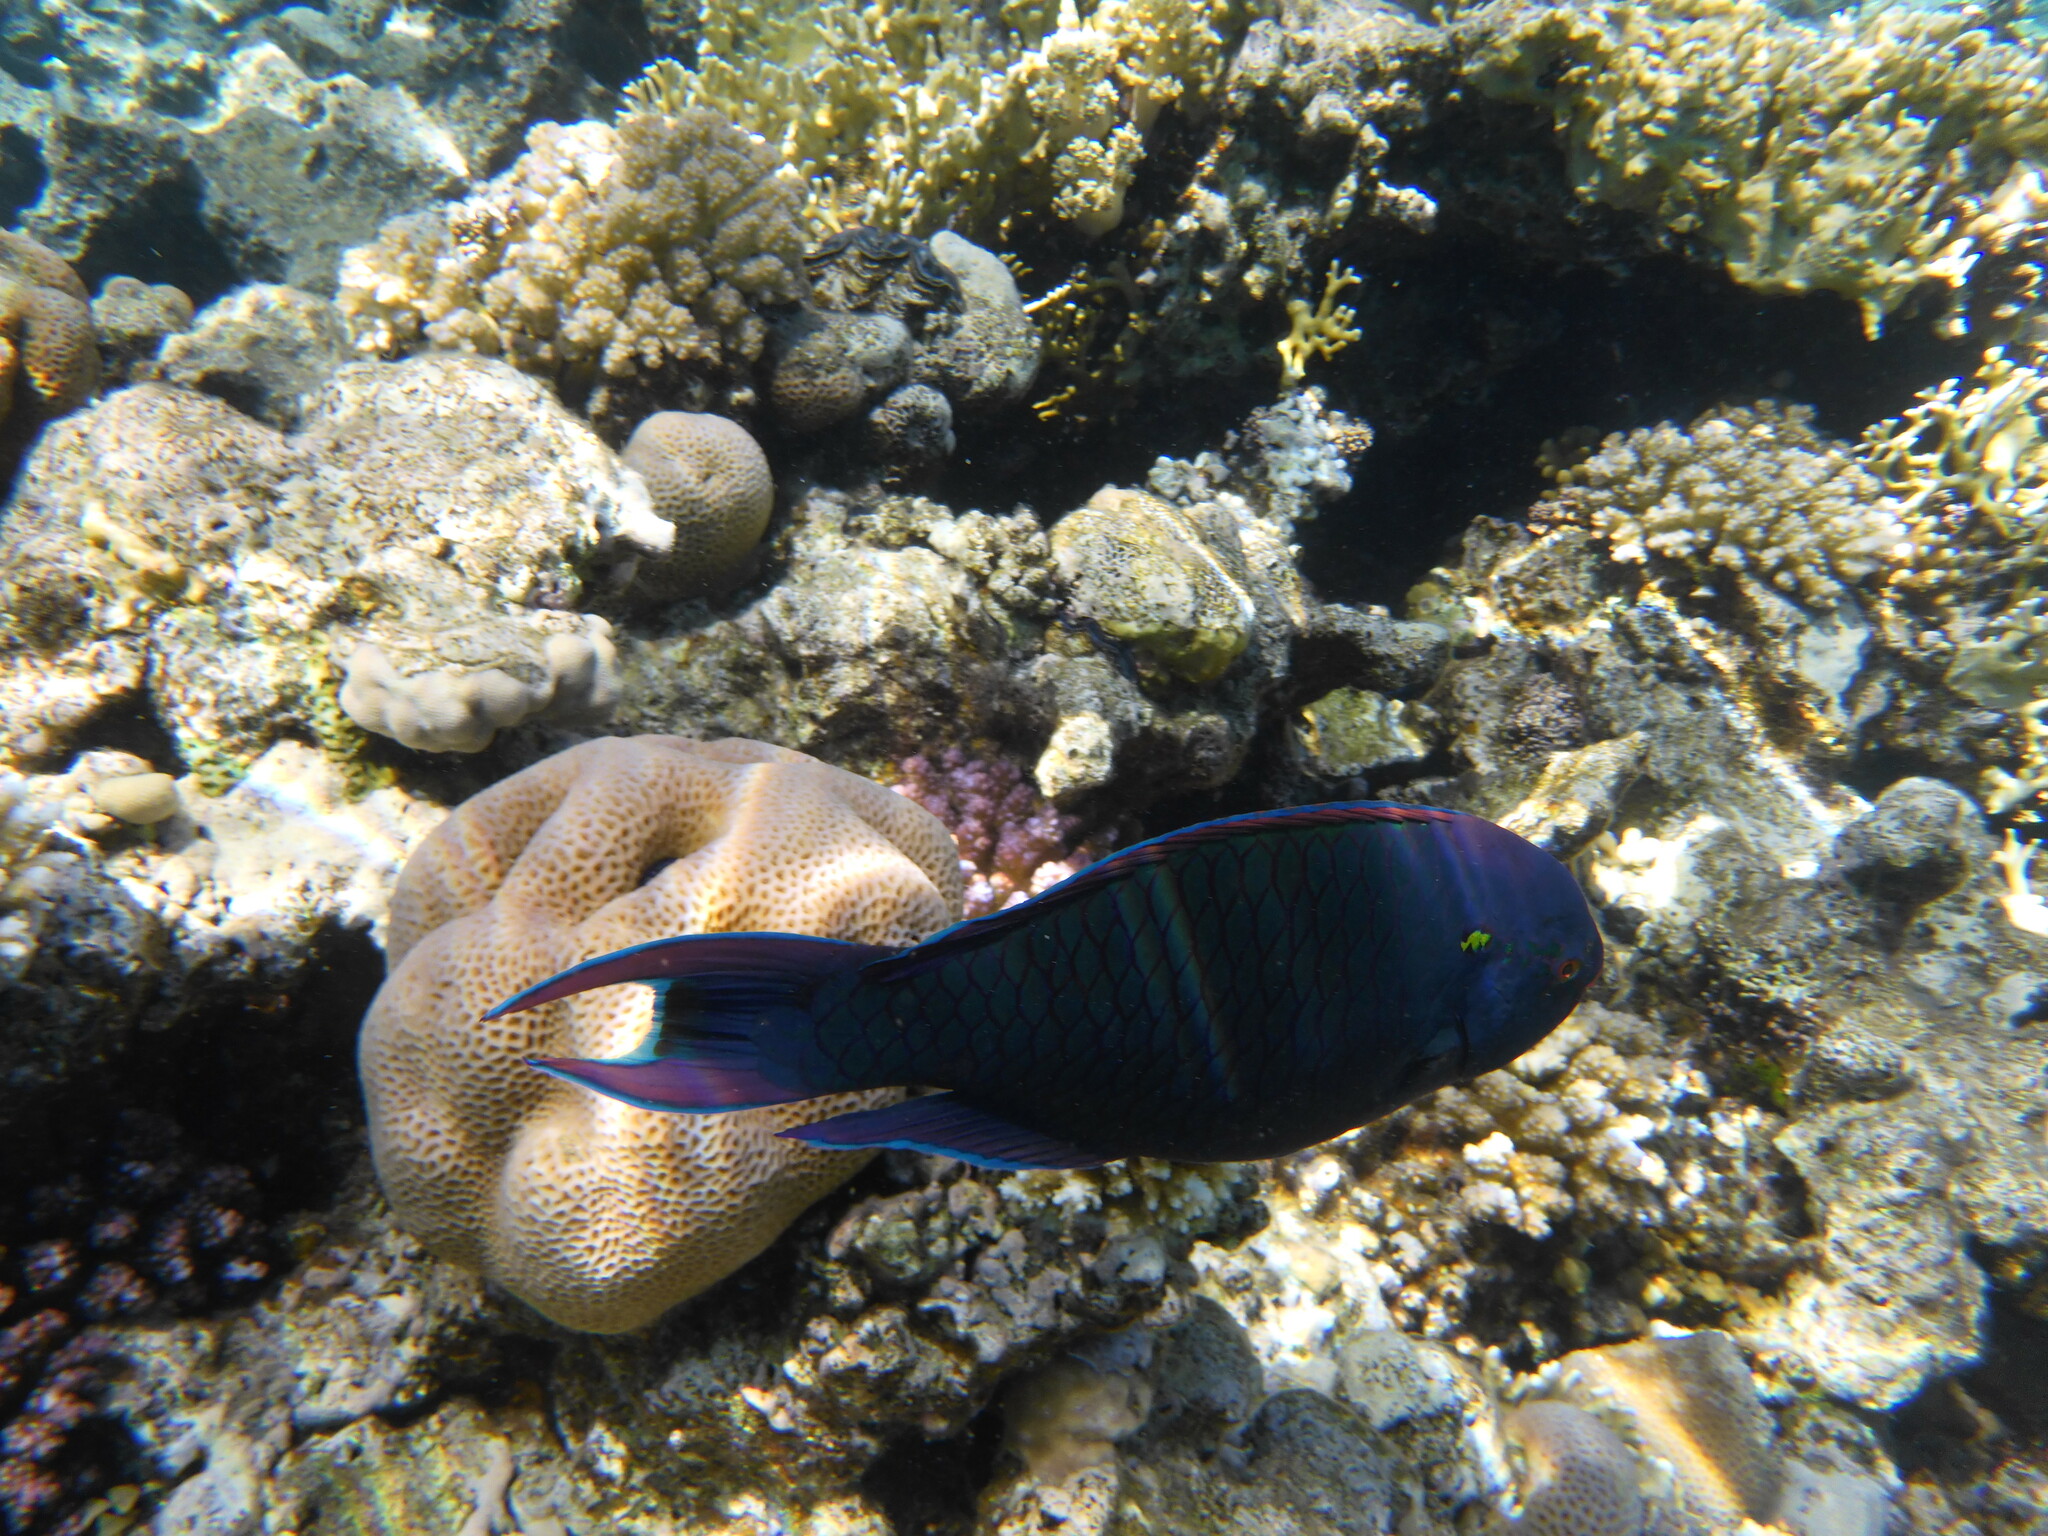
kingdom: Animalia
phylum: Chordata
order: Perciformes
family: Scaridae
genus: Scarus
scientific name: Scarus niger
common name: Dusky parrotfish
